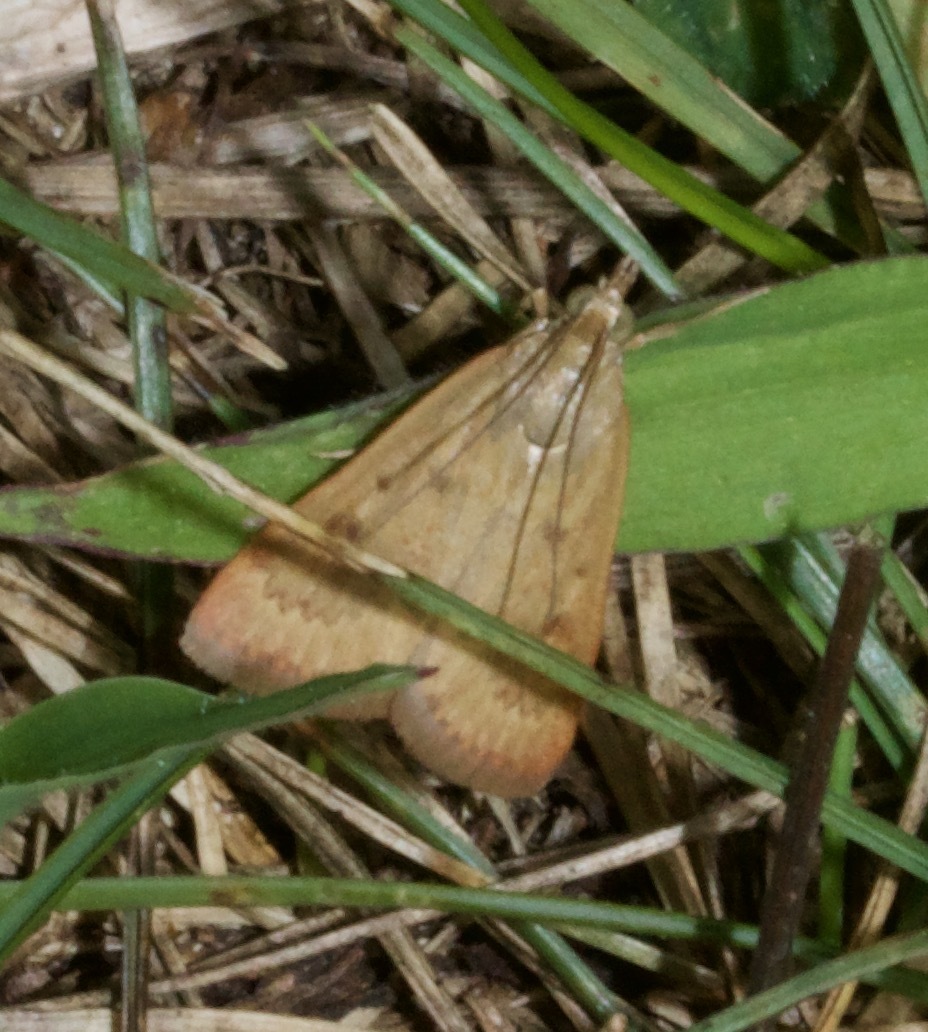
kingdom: Animalia
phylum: Arthropoda
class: Insecta
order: Lepidoptera
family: Crambidae
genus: Achyra
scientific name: Achyra rantalis
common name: Garden webworm
